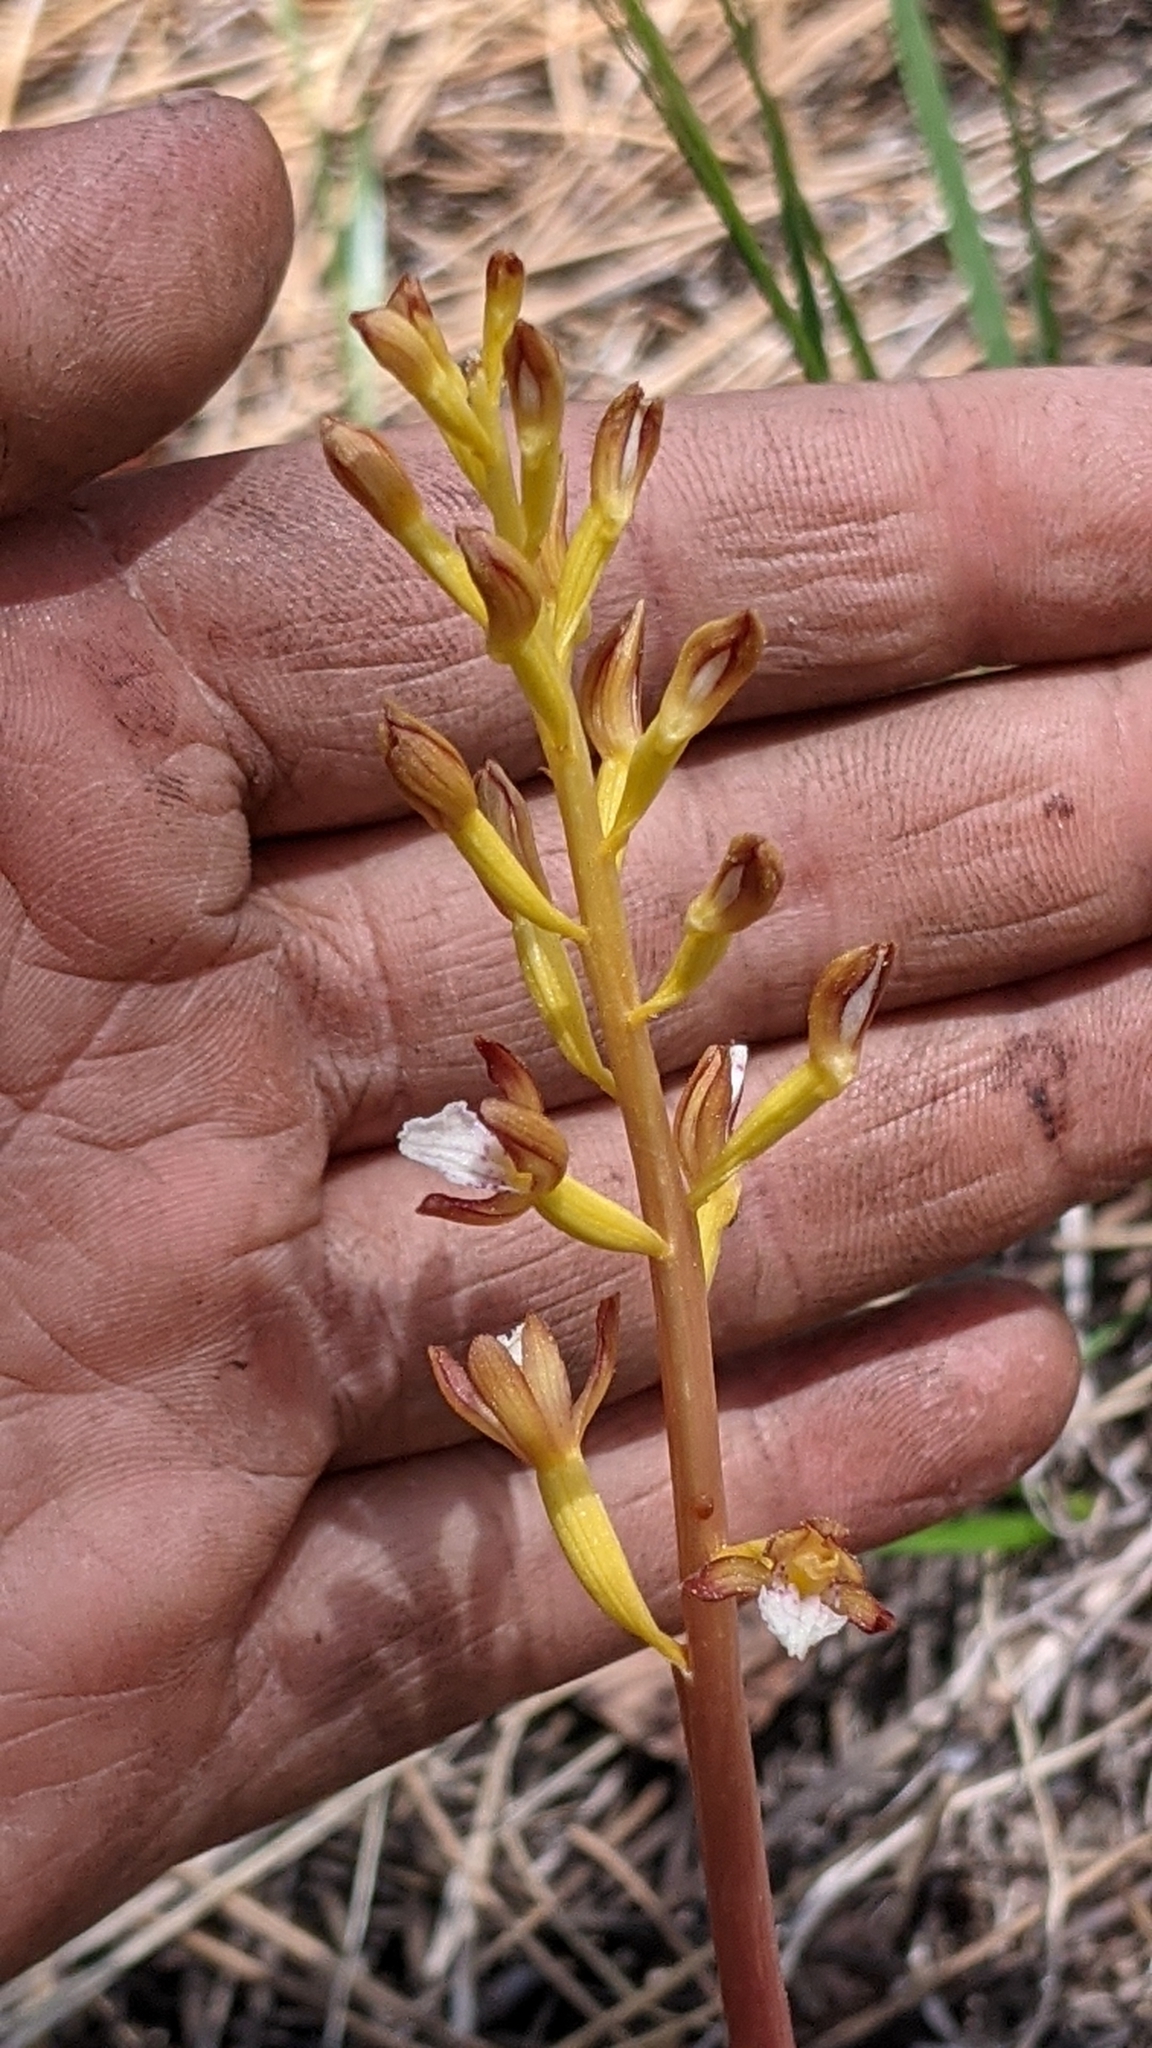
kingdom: Plantae
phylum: Tracheophyta
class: Liliopsida
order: Asparagales
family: Orchidaceae
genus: Corallorhiza
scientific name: Corallorhiza maculata
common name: Spotted coralroot
